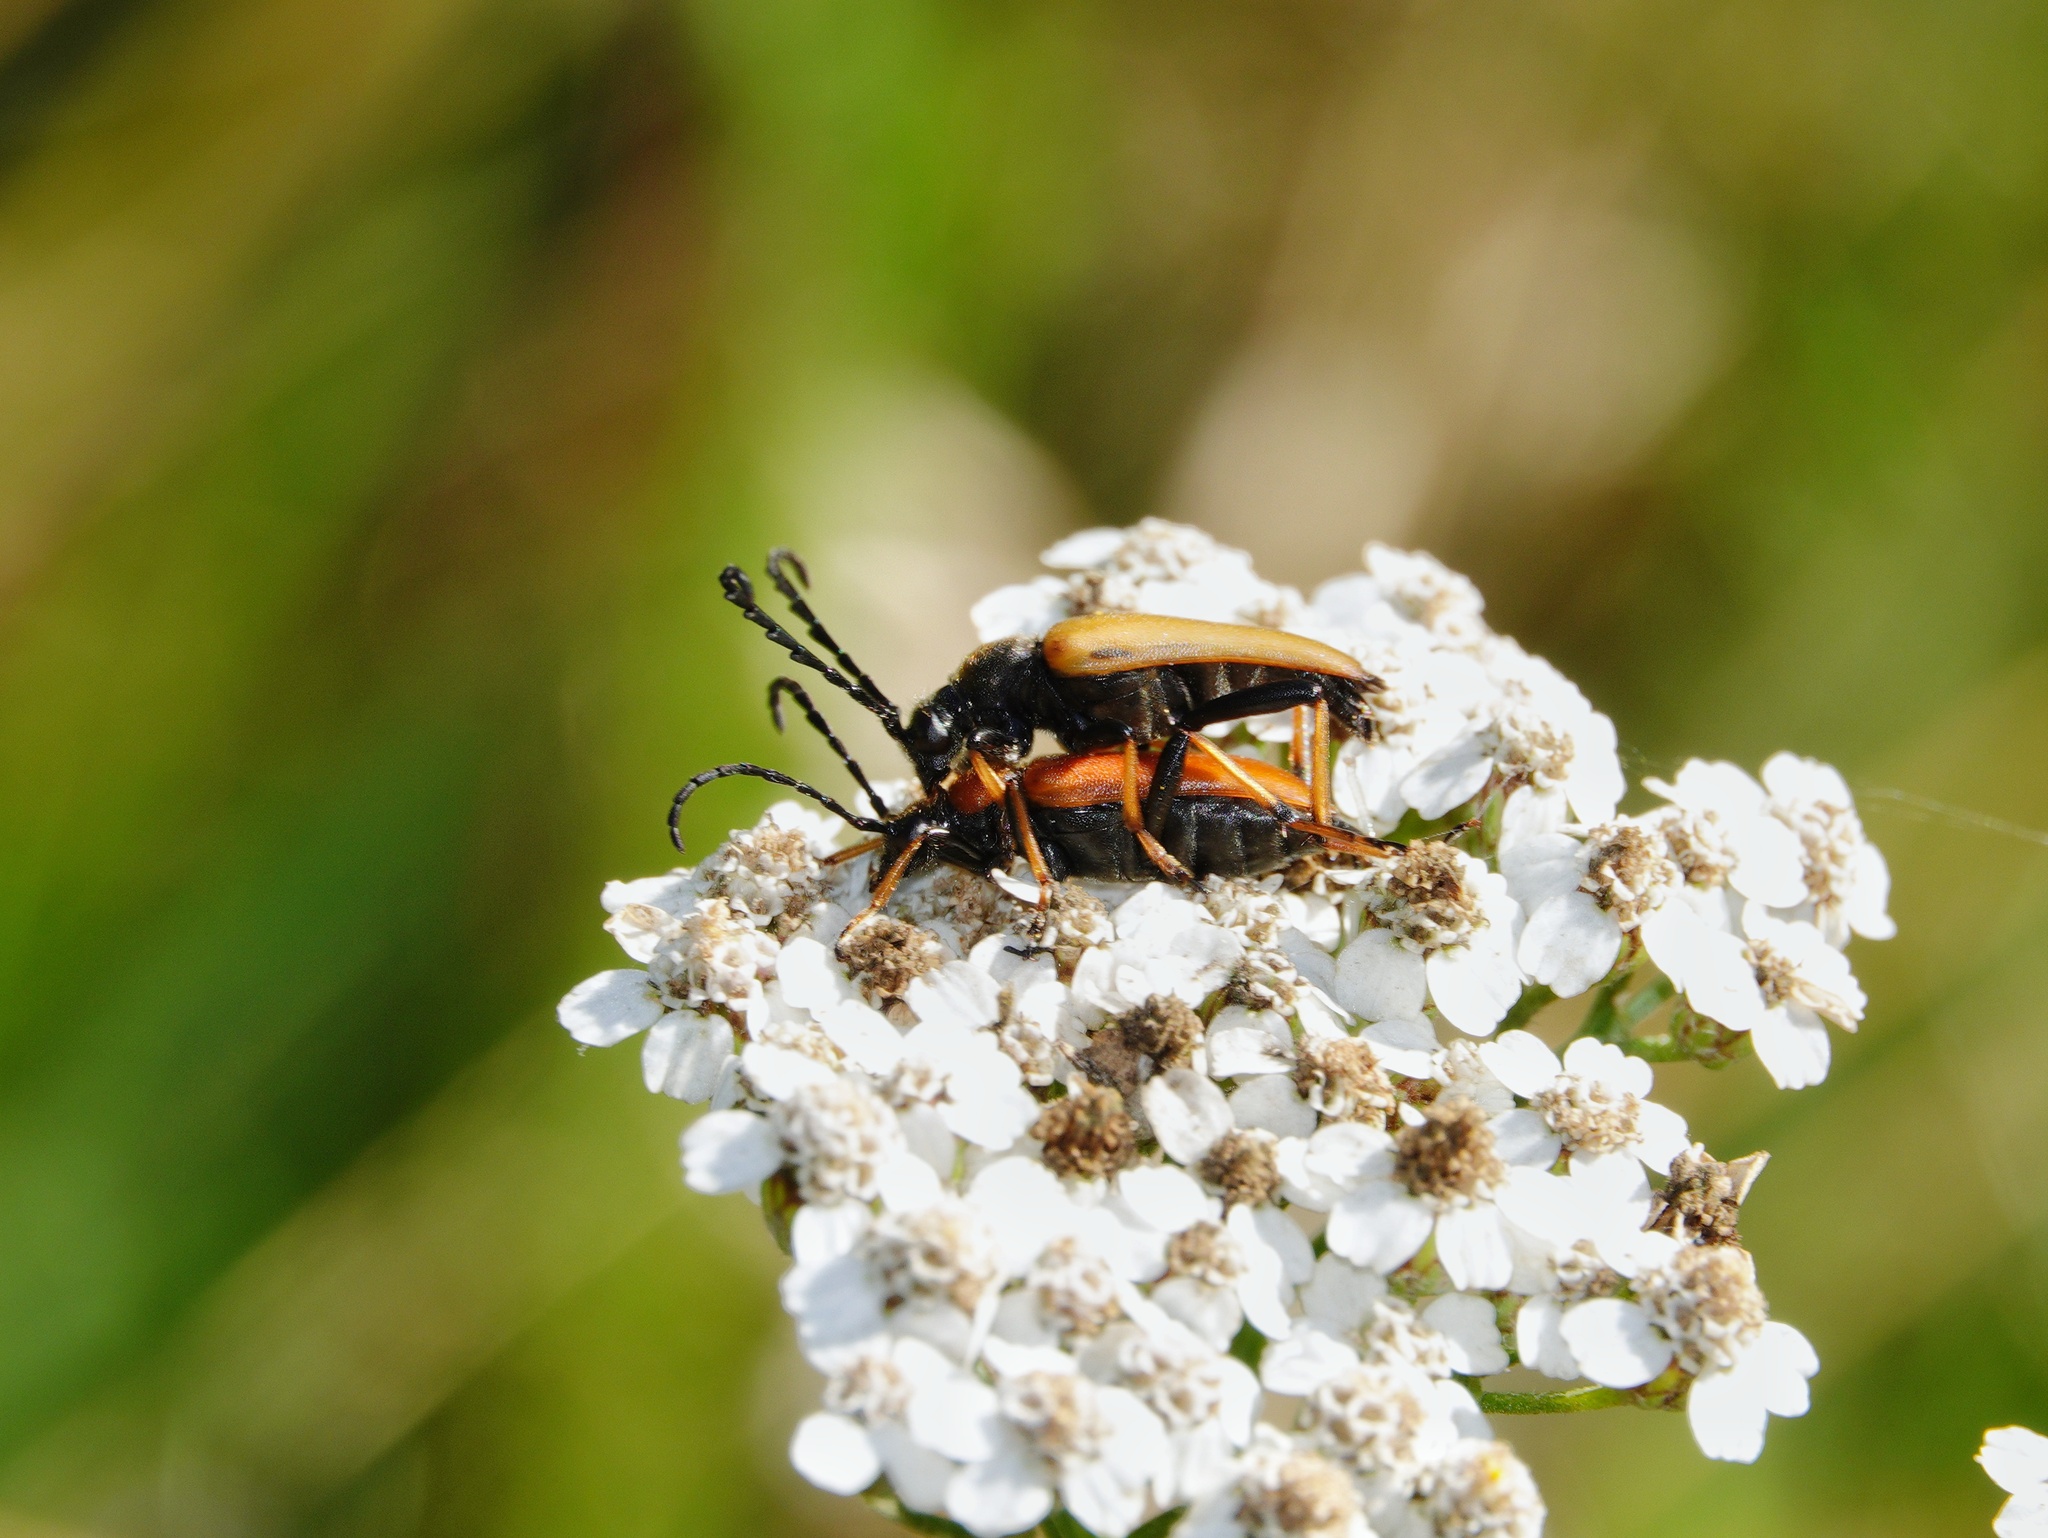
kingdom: Animalia
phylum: Arthropoda
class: Insecta
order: Coleoptera
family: Cerambycidae
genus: Stictoleptura
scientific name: Stictoleptura rubra
